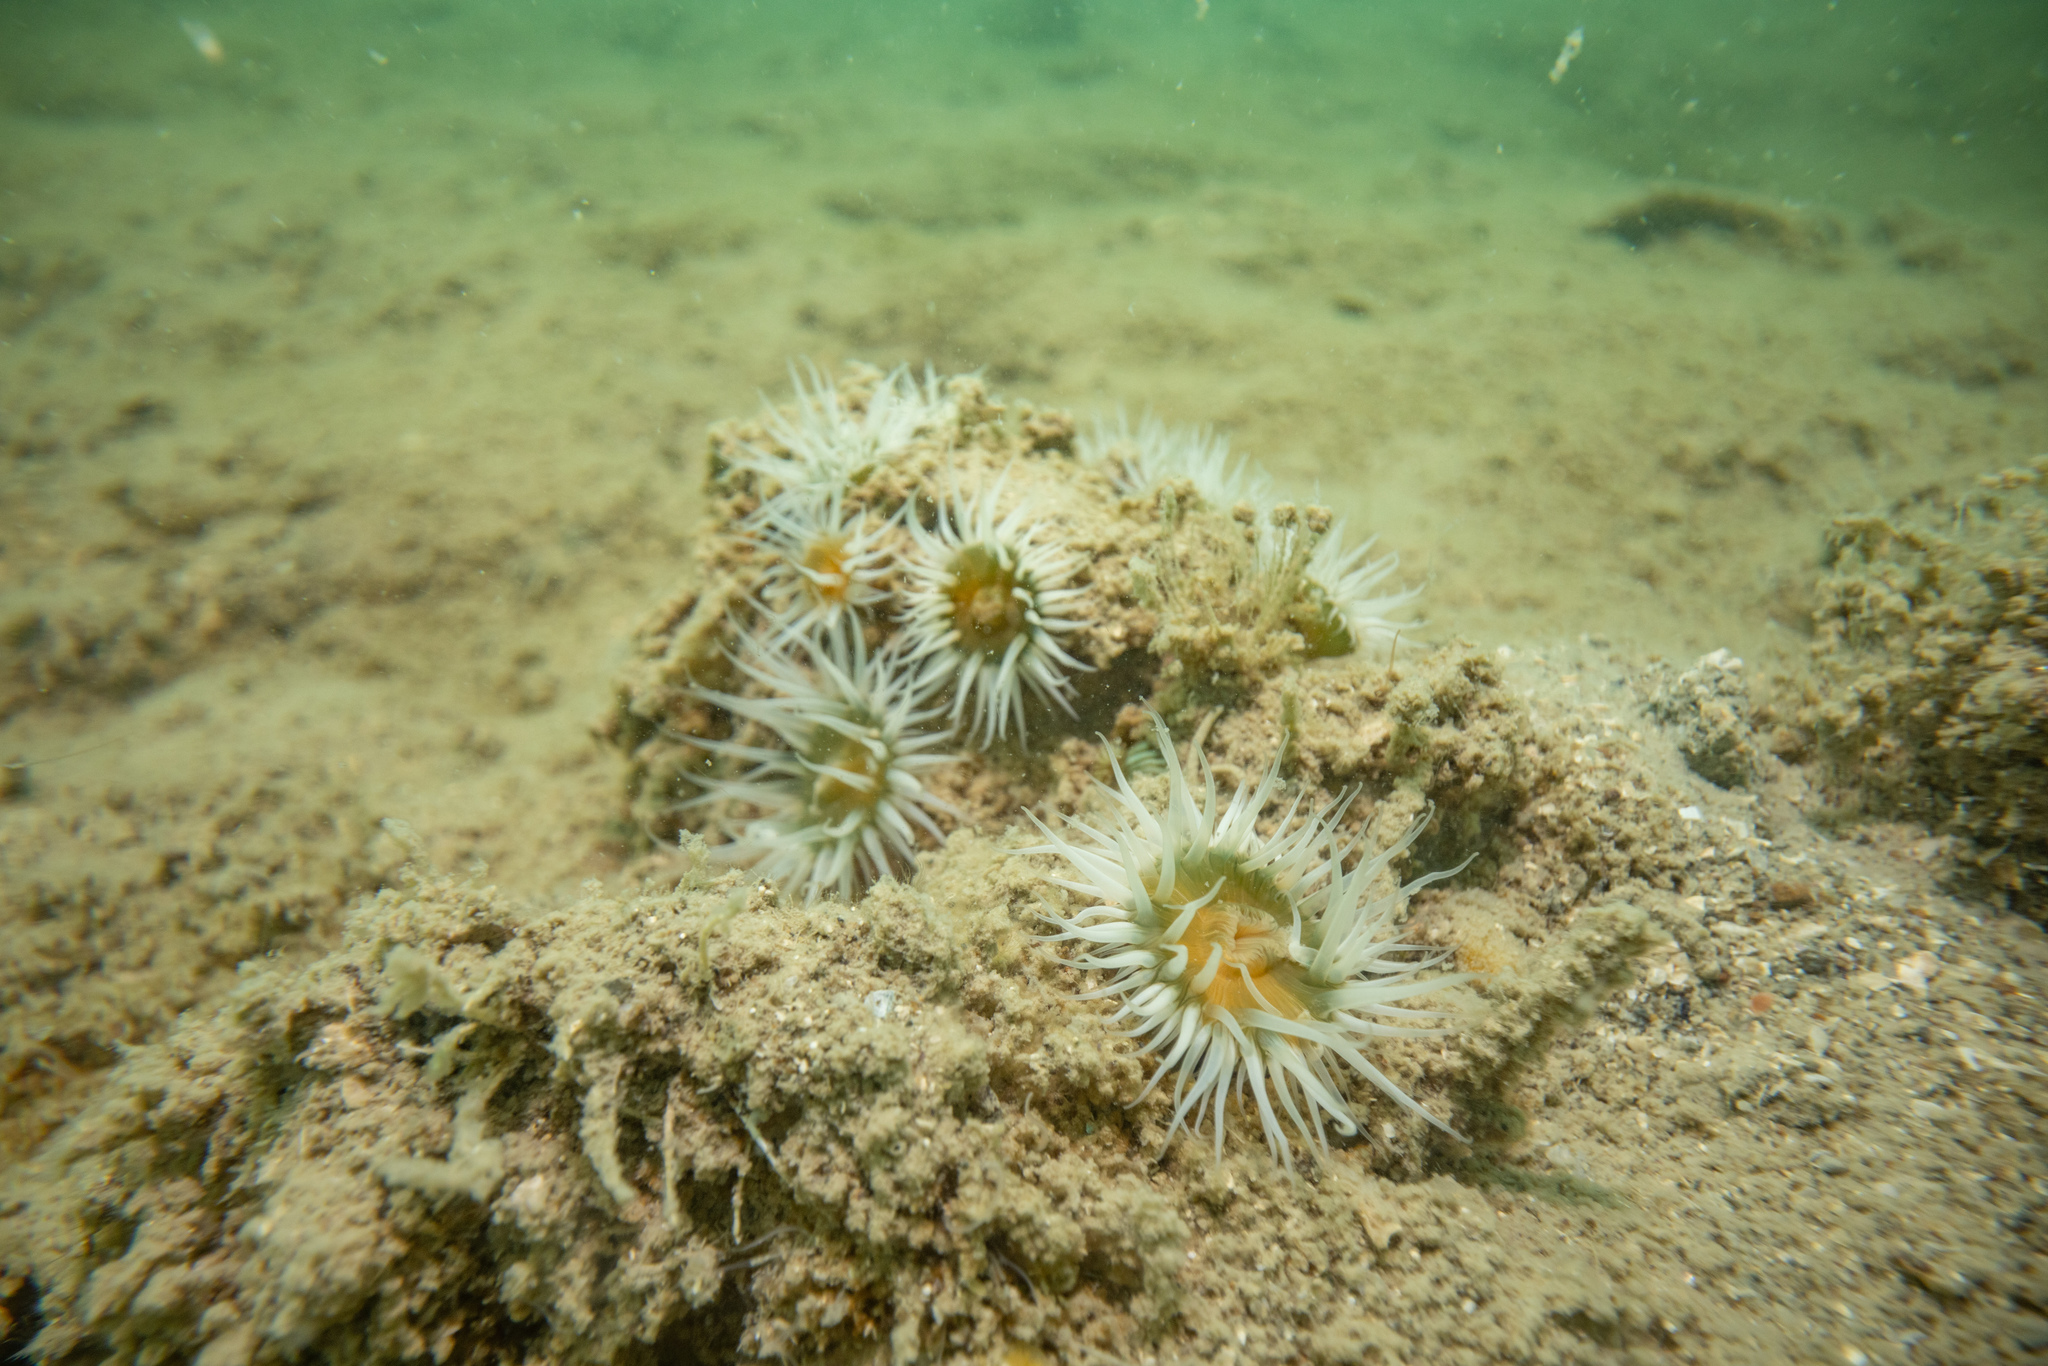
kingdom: Animalia
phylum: Cnidaria
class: Anthozoa
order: Actiniaria
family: Sagartiidae
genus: Anthothoe
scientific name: Anthothoe albocincta
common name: Orange striped anemone
